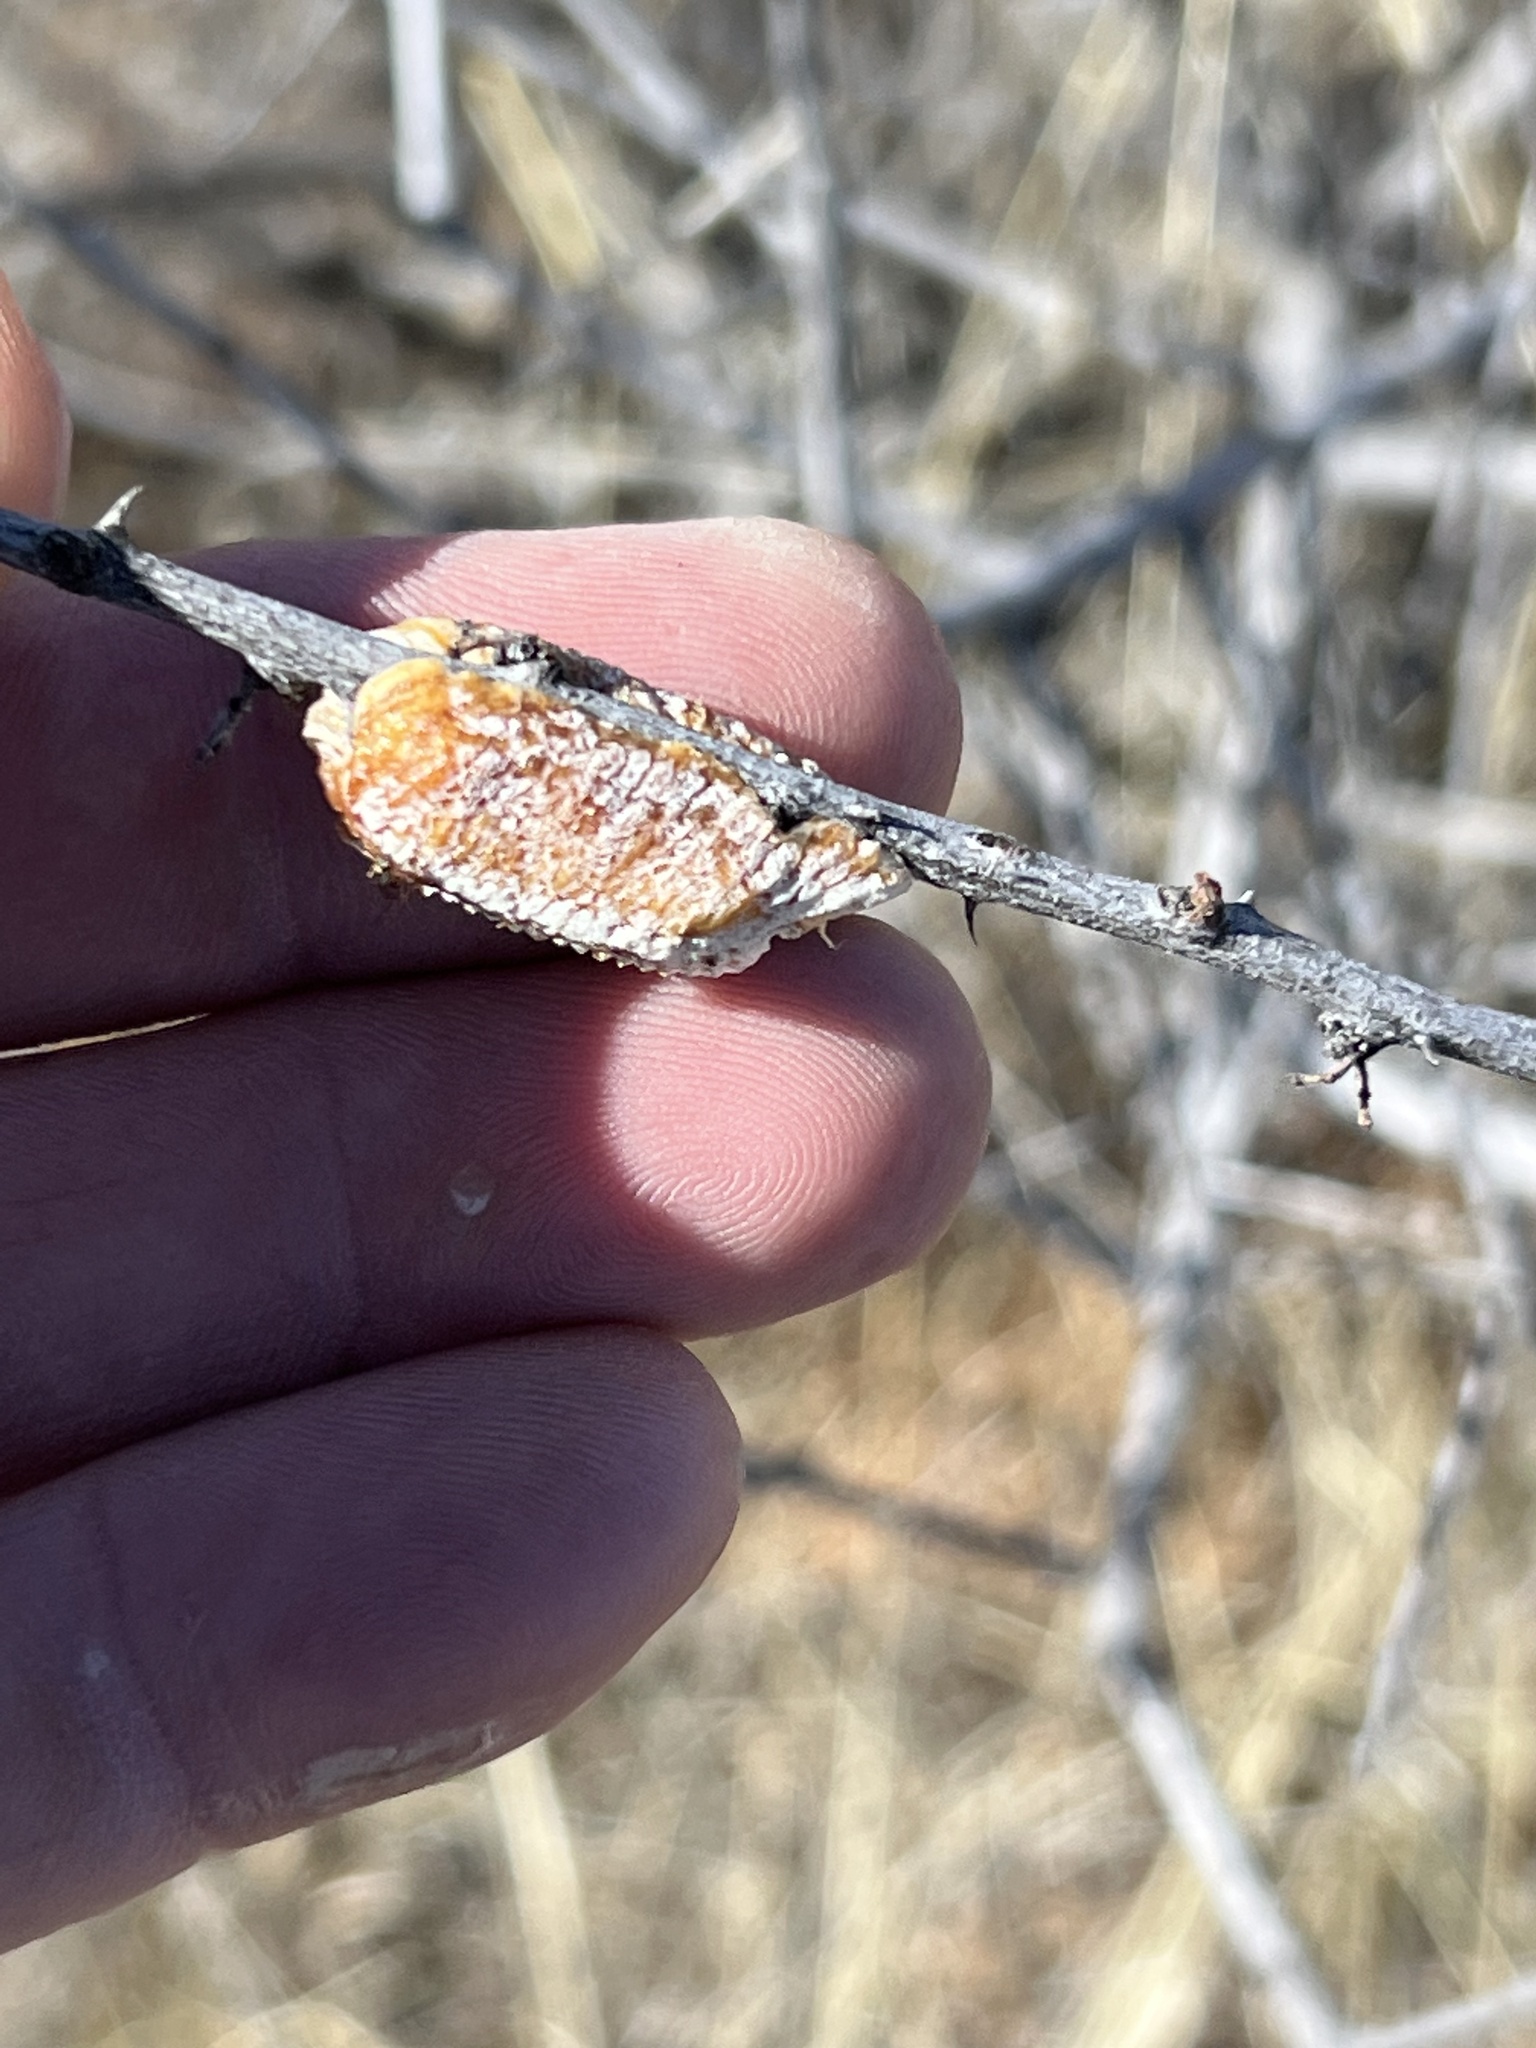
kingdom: Animalia
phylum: Arthropoda
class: Insecta
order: Mantodea
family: Mantidae
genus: Stagmomantis
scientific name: Stagmomantis limbata
